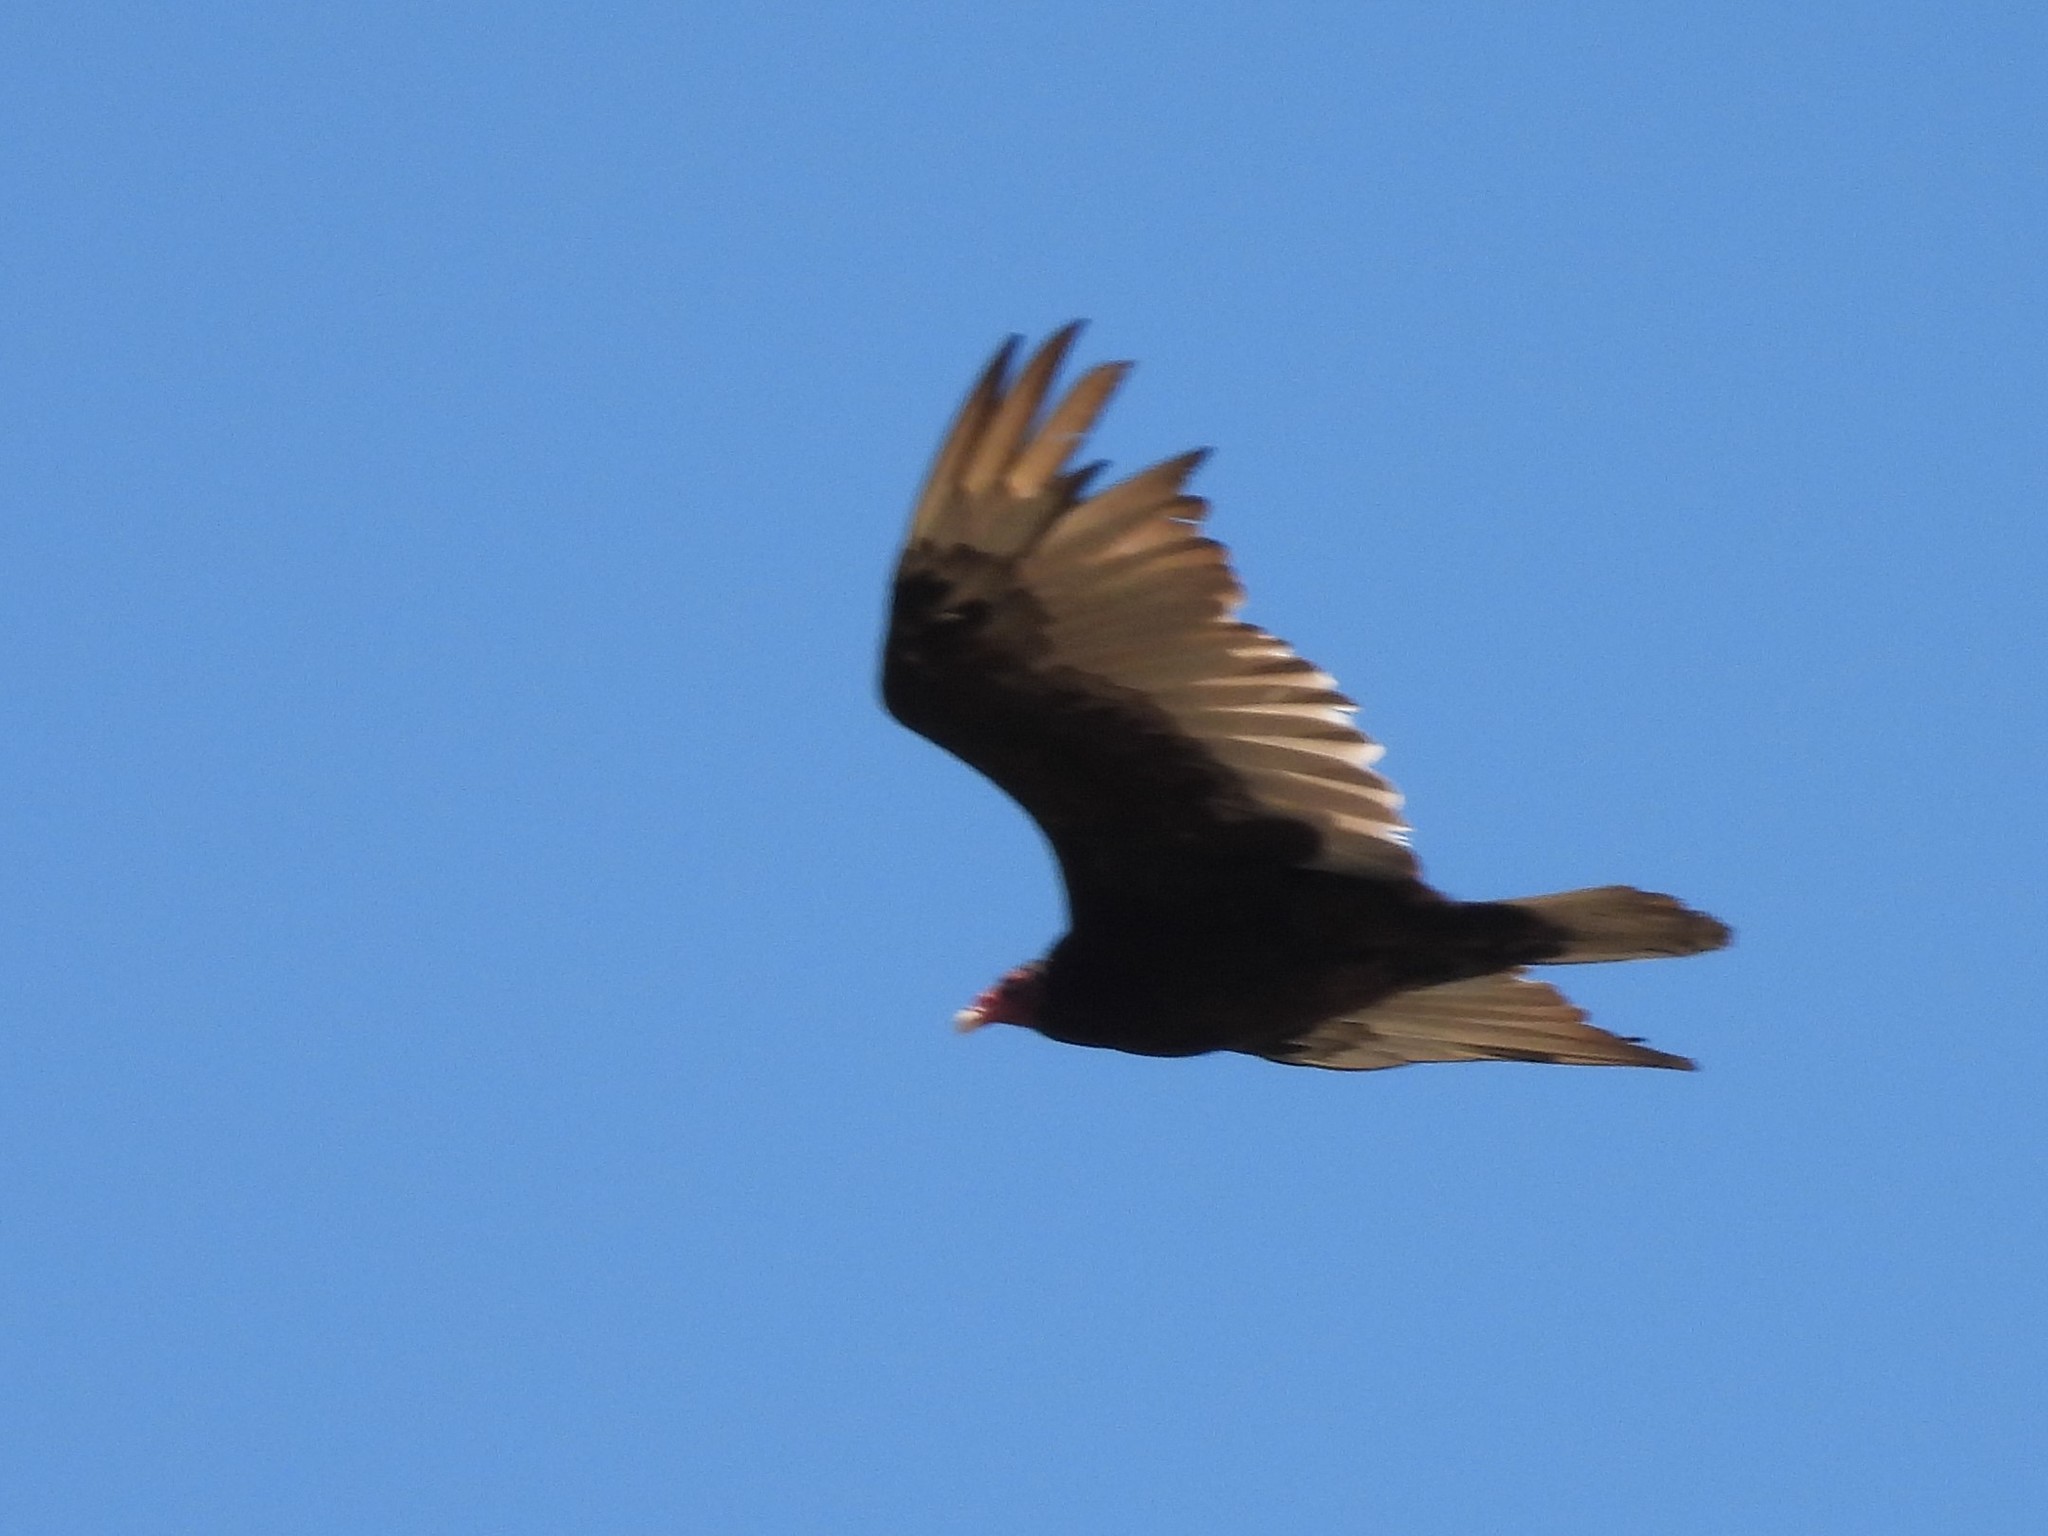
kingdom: Animalia
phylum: Chordata
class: Aves
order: Accipitriformes
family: Cathartidae
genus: Cathartes
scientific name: Cathartes aura
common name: Turkey vulture
